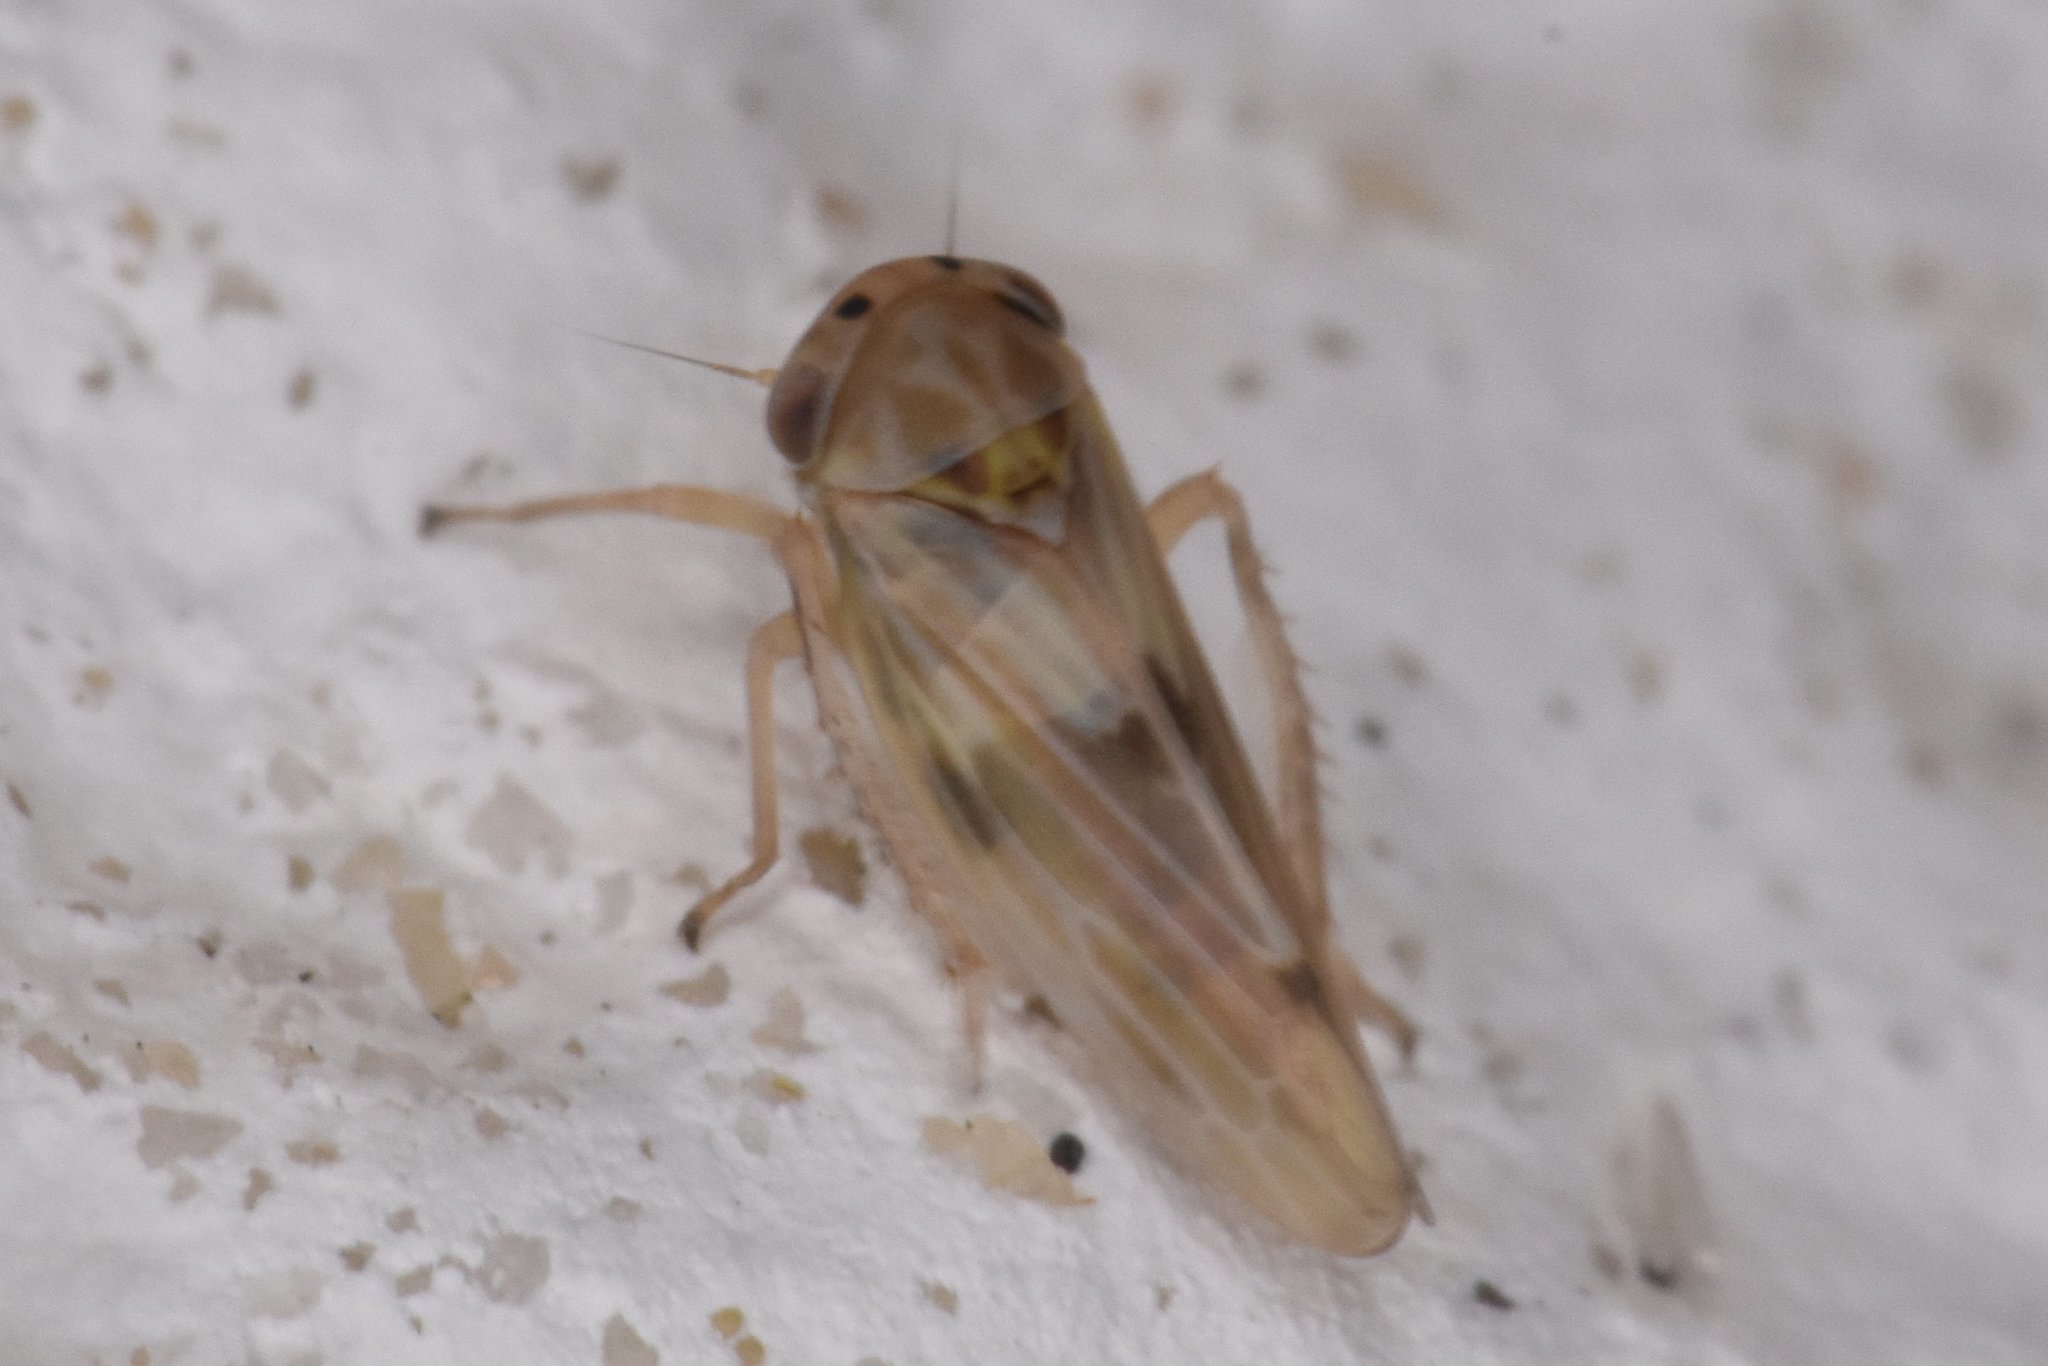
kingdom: Animalia
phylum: Arthropoda
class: Insecta
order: Hemiptera
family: Cicadellidae
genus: Agallia
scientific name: Agallia albidula
